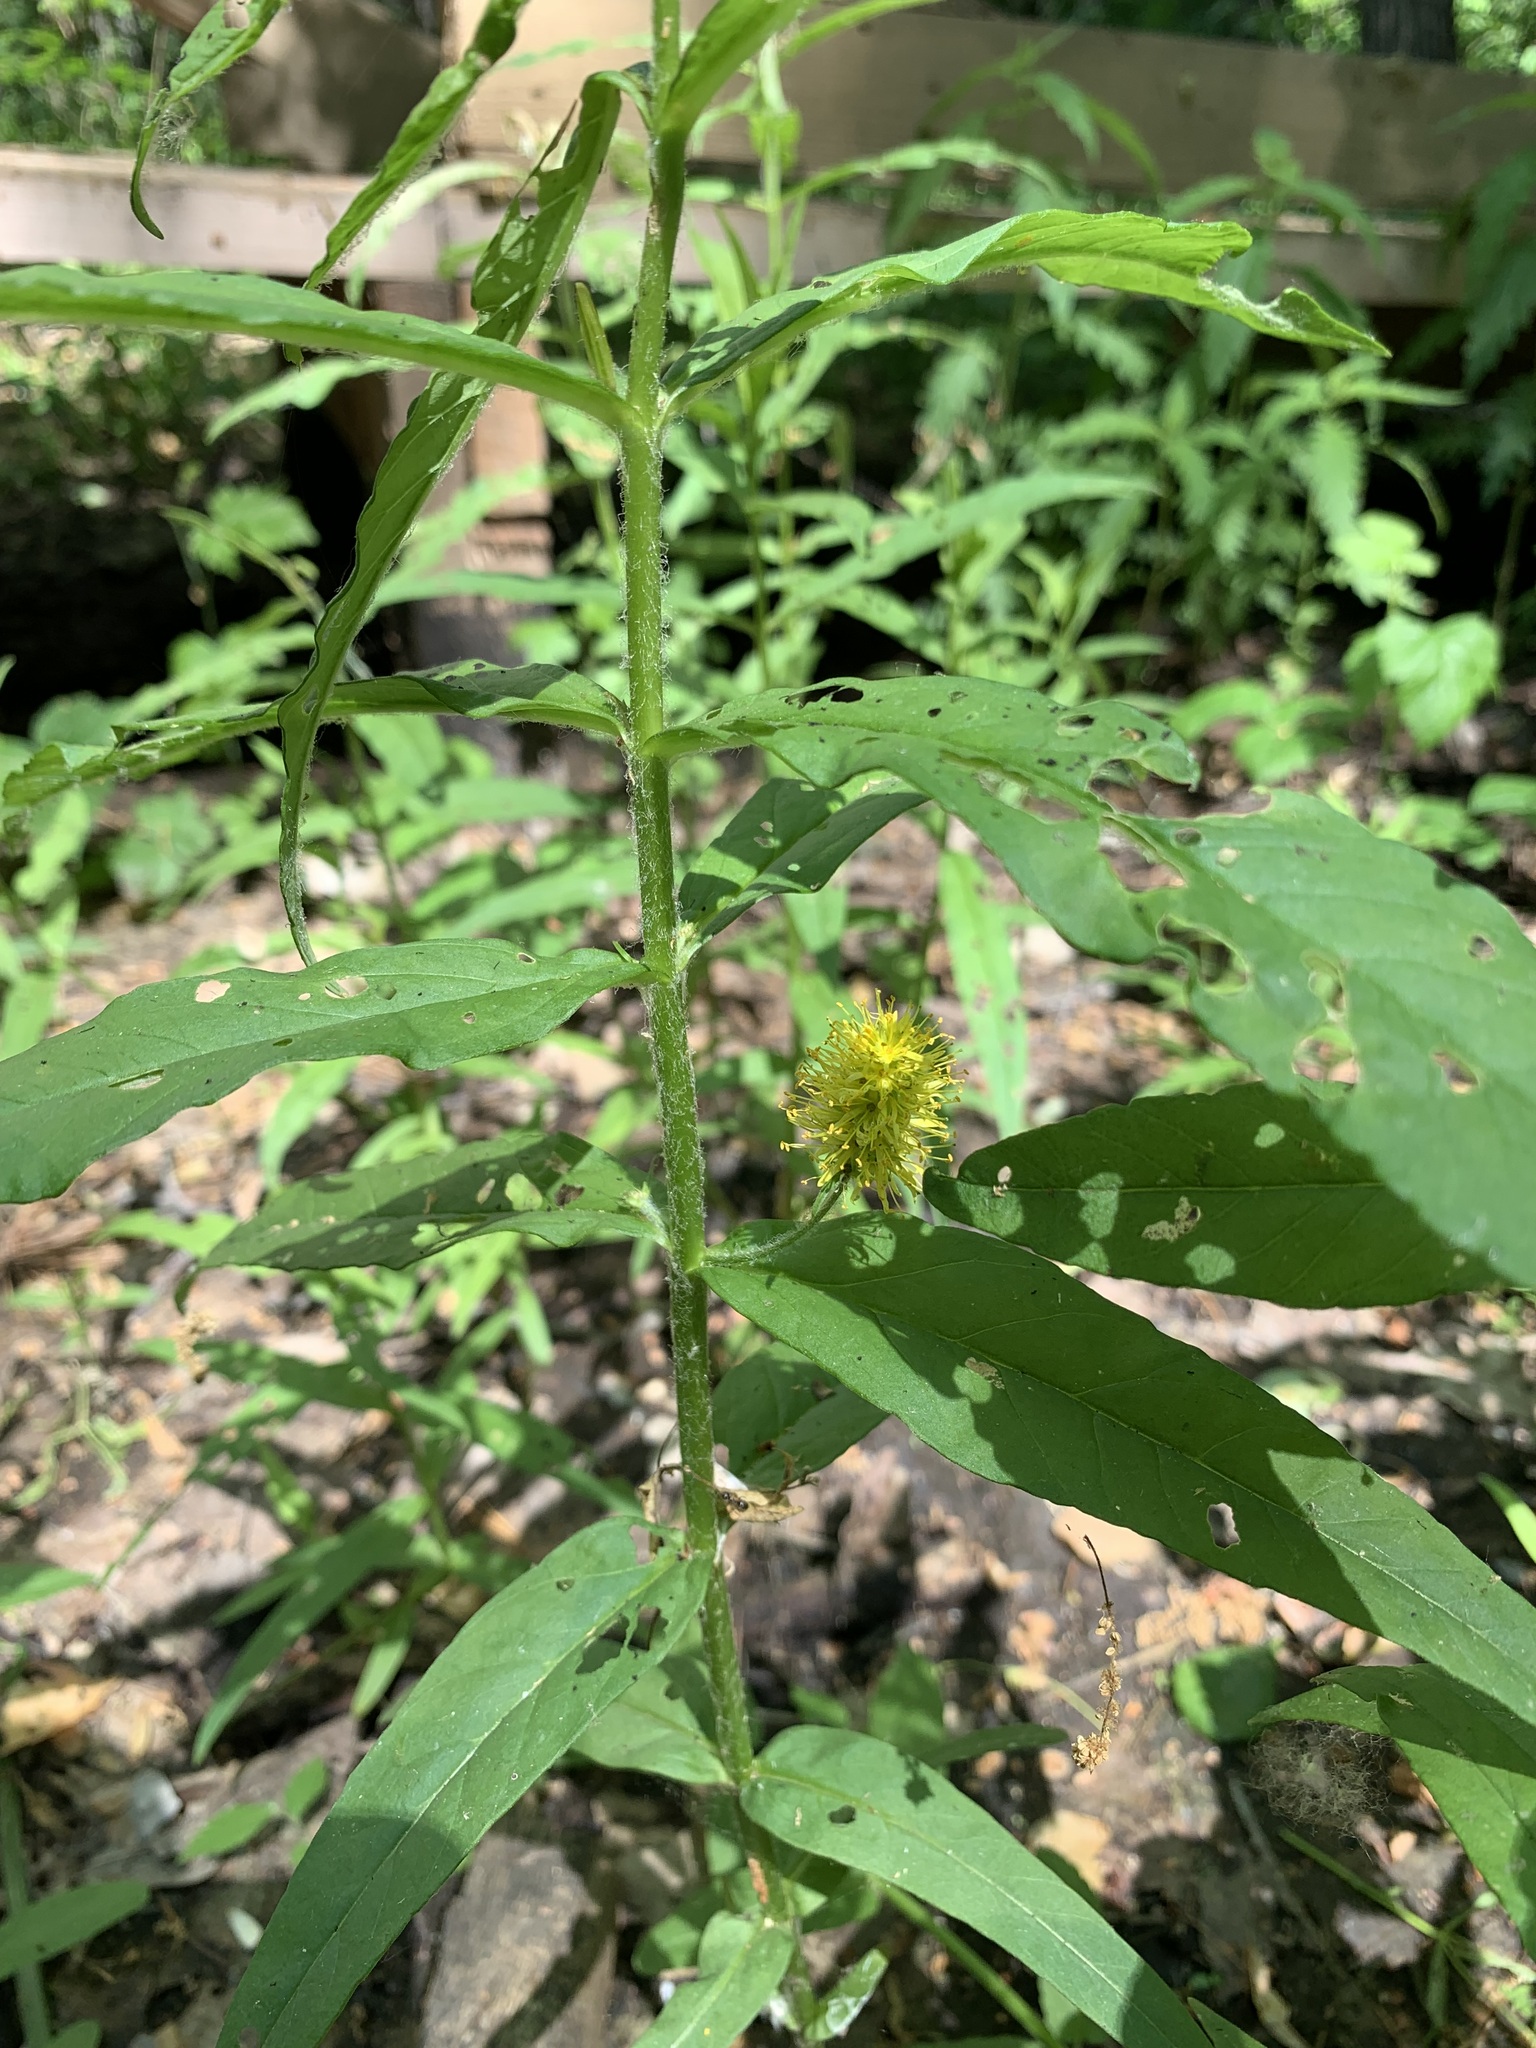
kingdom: Plantae
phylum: Tracheophyta
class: Magnoliopsida
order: Ericales
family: Primulaceae
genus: Lysimachia
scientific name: Lysimachia thyrsiflora
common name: Tufted loosestrife
